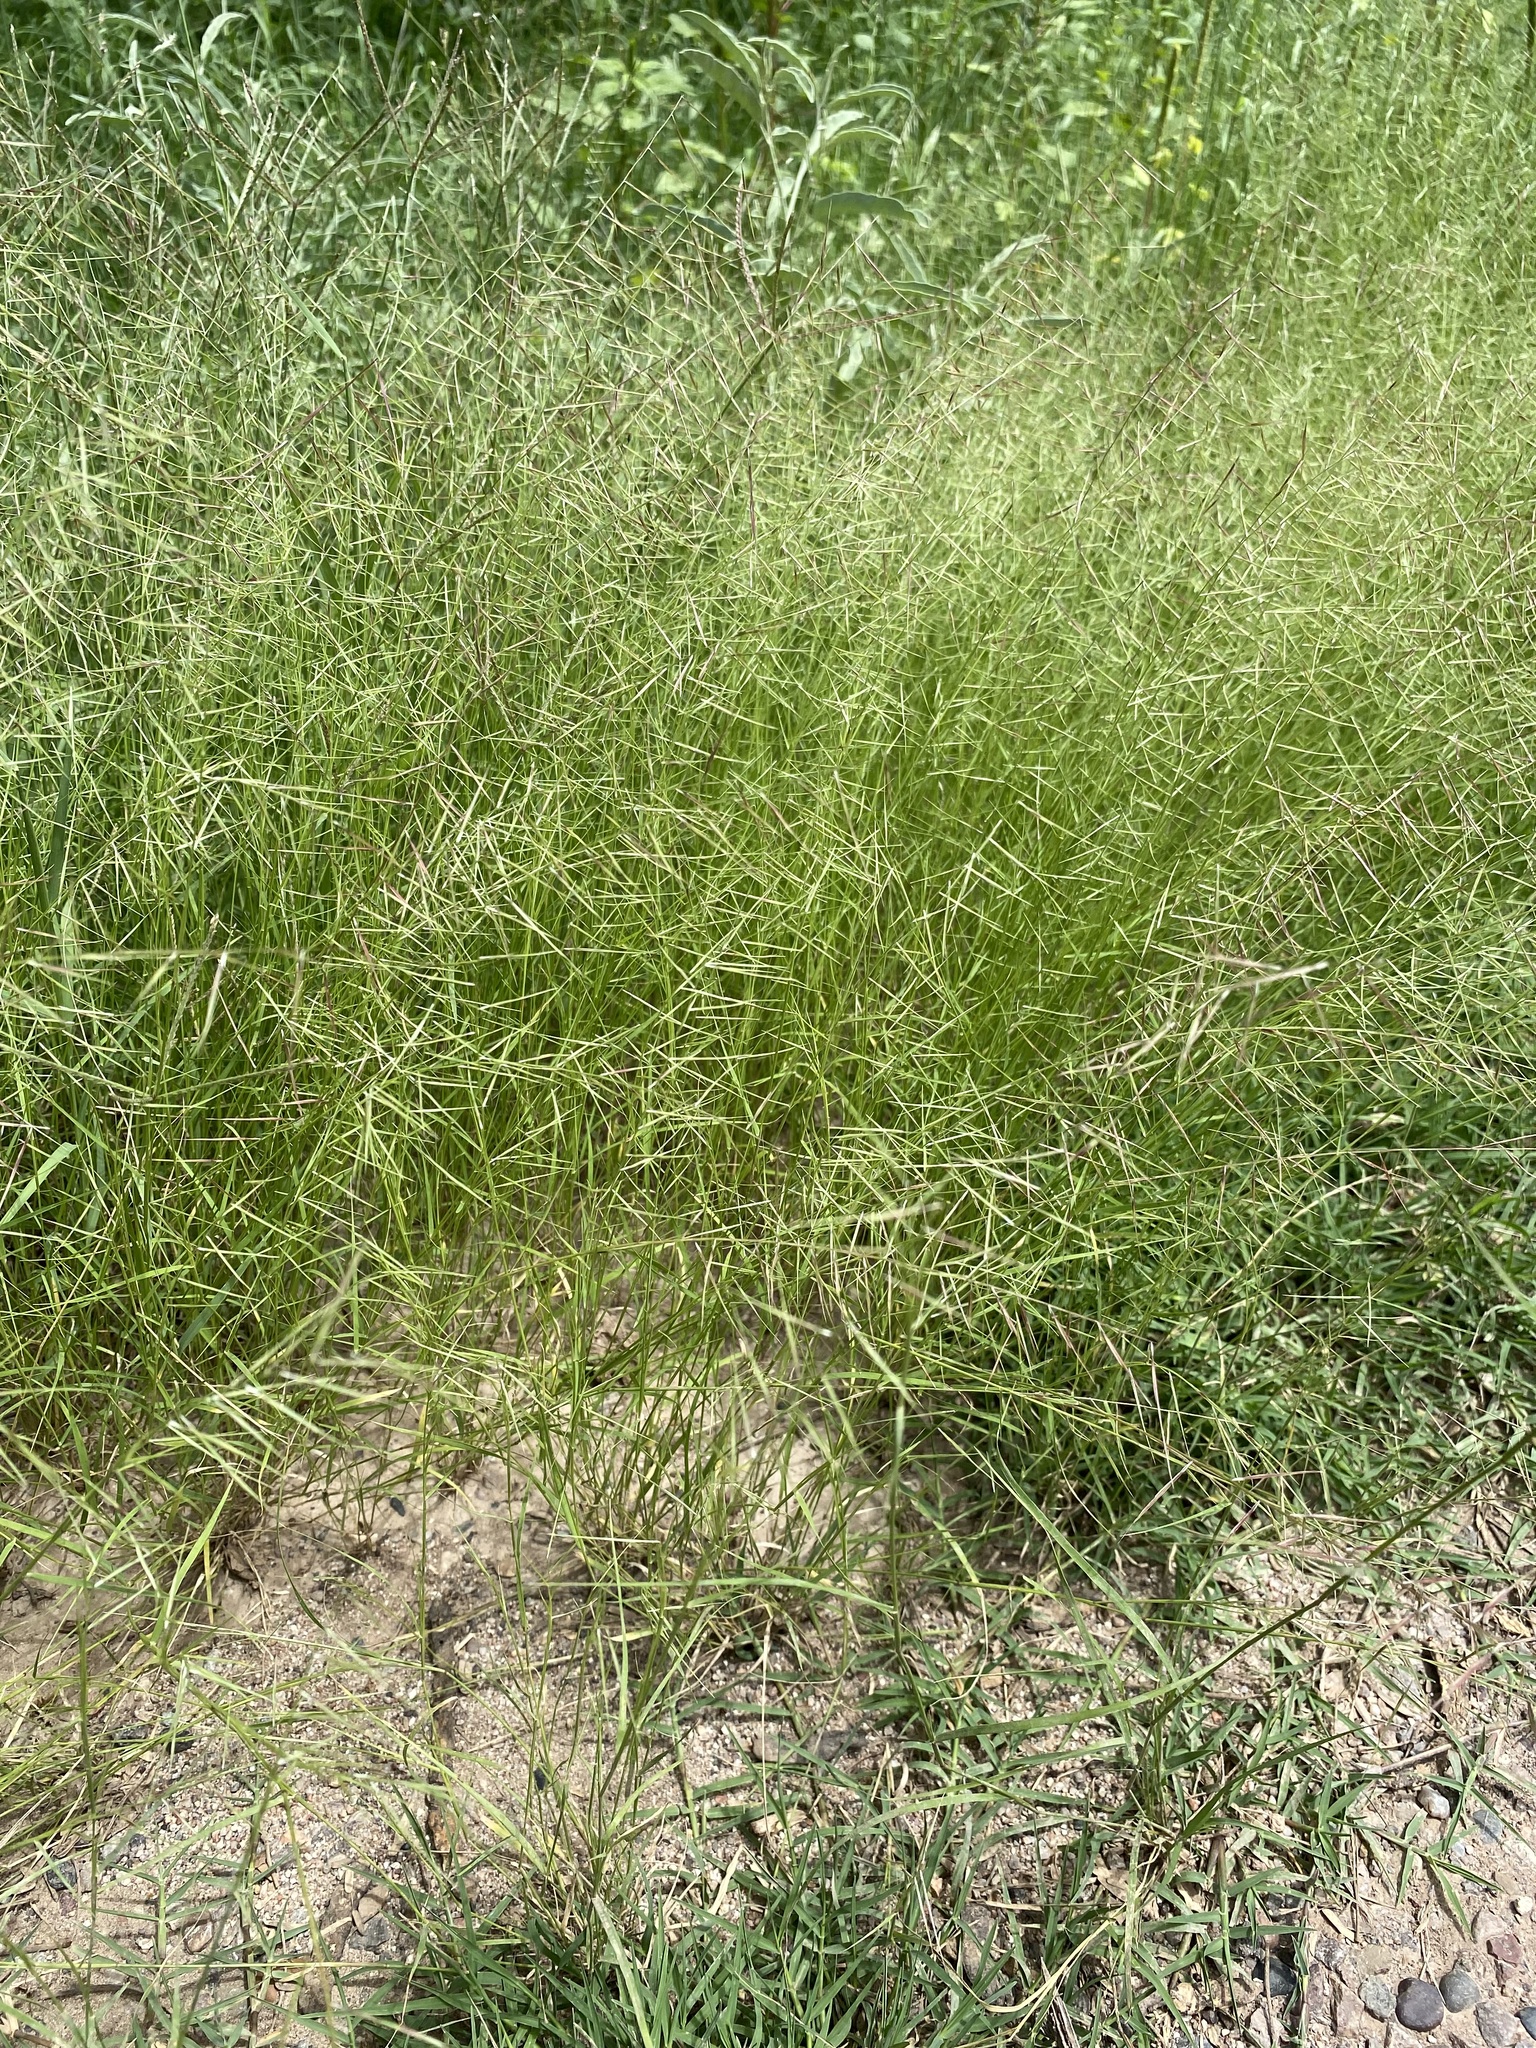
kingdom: Plantae
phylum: Tracheophyta
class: Liliopsida
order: Poales
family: Poaceae
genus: Bouteloua
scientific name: Bouteloua aristidoides
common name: Needle grama
